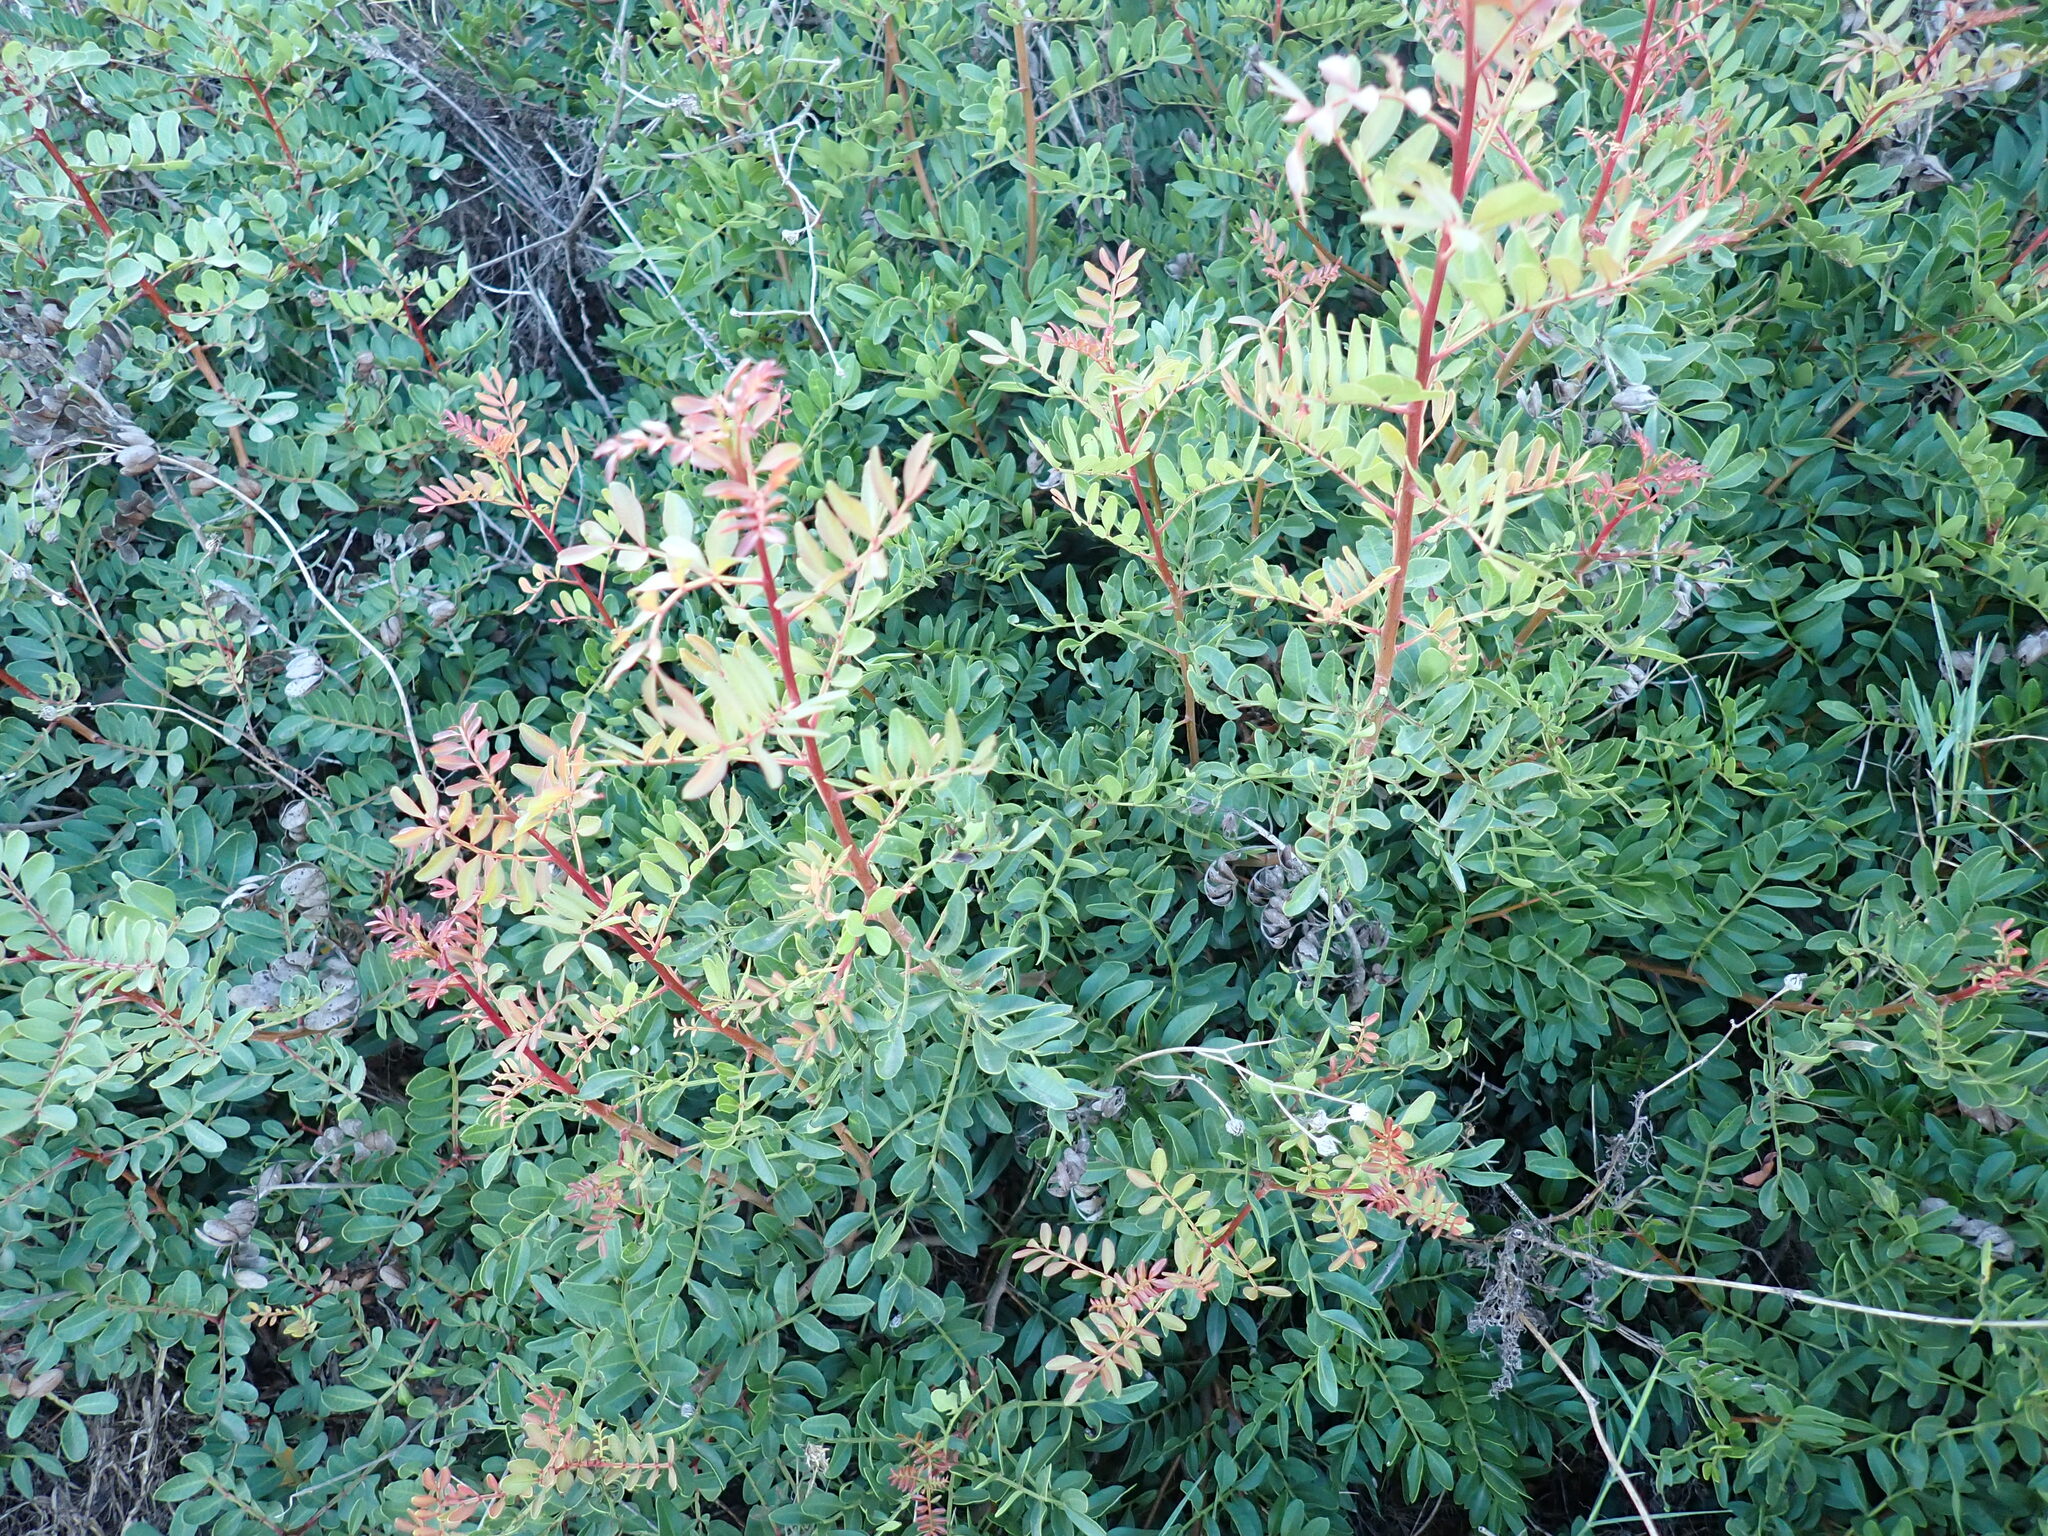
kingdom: Plantae
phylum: Tracheophyta
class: Magnoliopsida
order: Sapindales
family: Anacardiaceae
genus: Pistacia
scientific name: Pistacia lentiscus
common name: Lentisk
